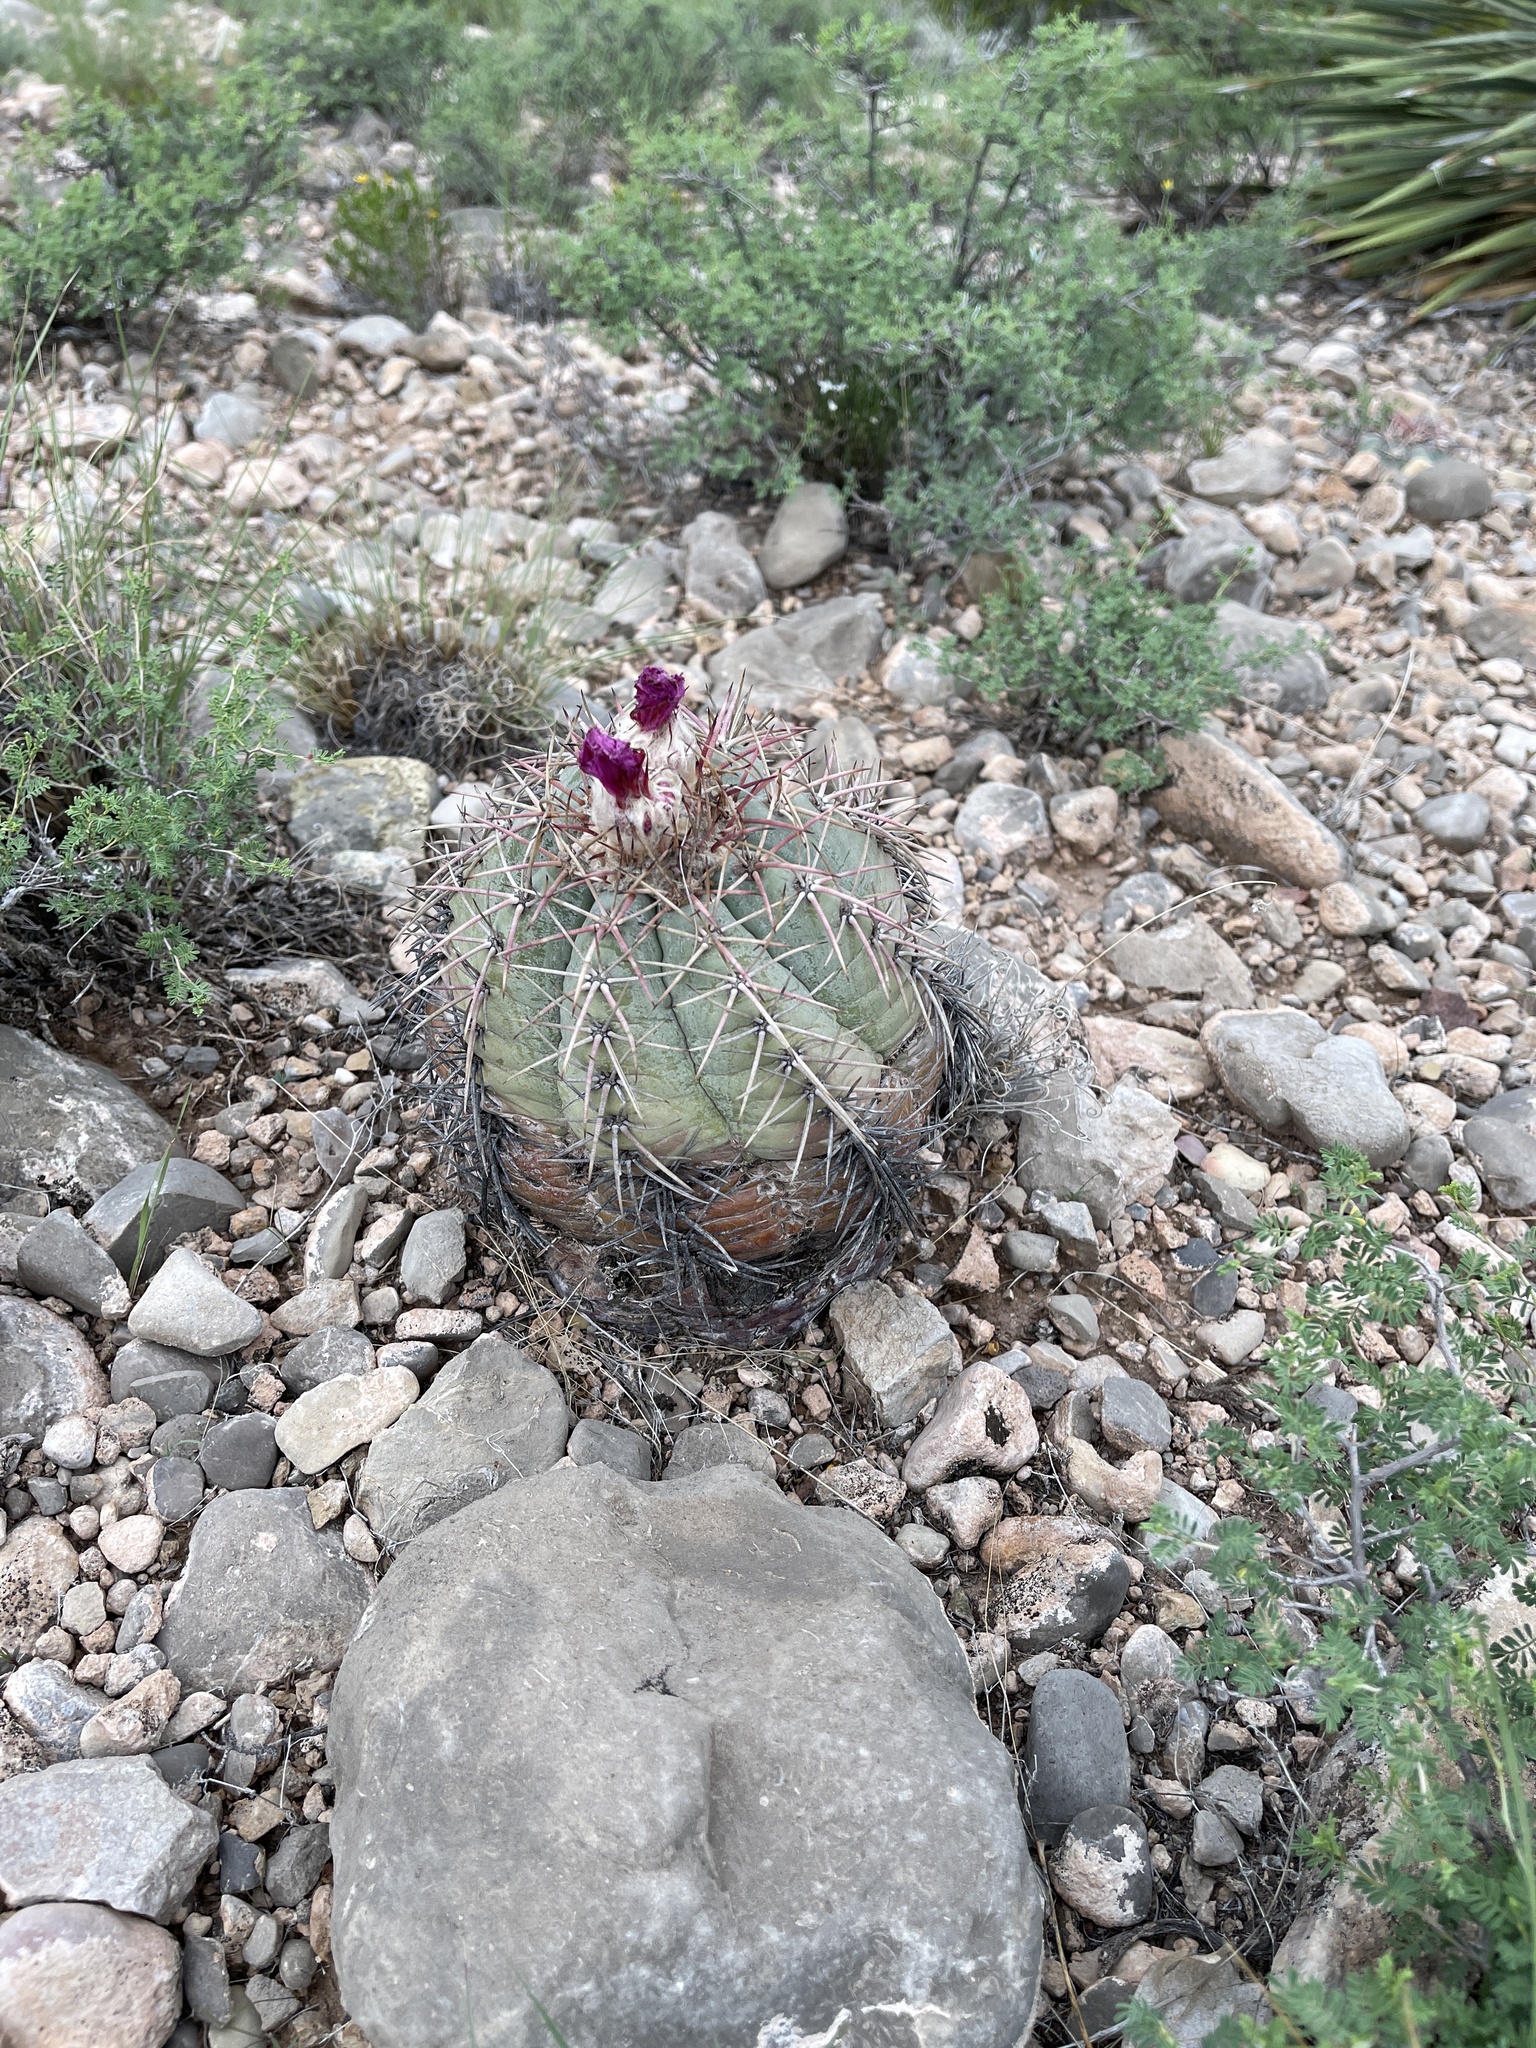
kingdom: Plantae
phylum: Tracheophyta
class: Magnoliopsida
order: Caryophyllales
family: Cactaceae
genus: Echinocactus
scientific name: Echinocactus horizonthalonius
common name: Devilshead
